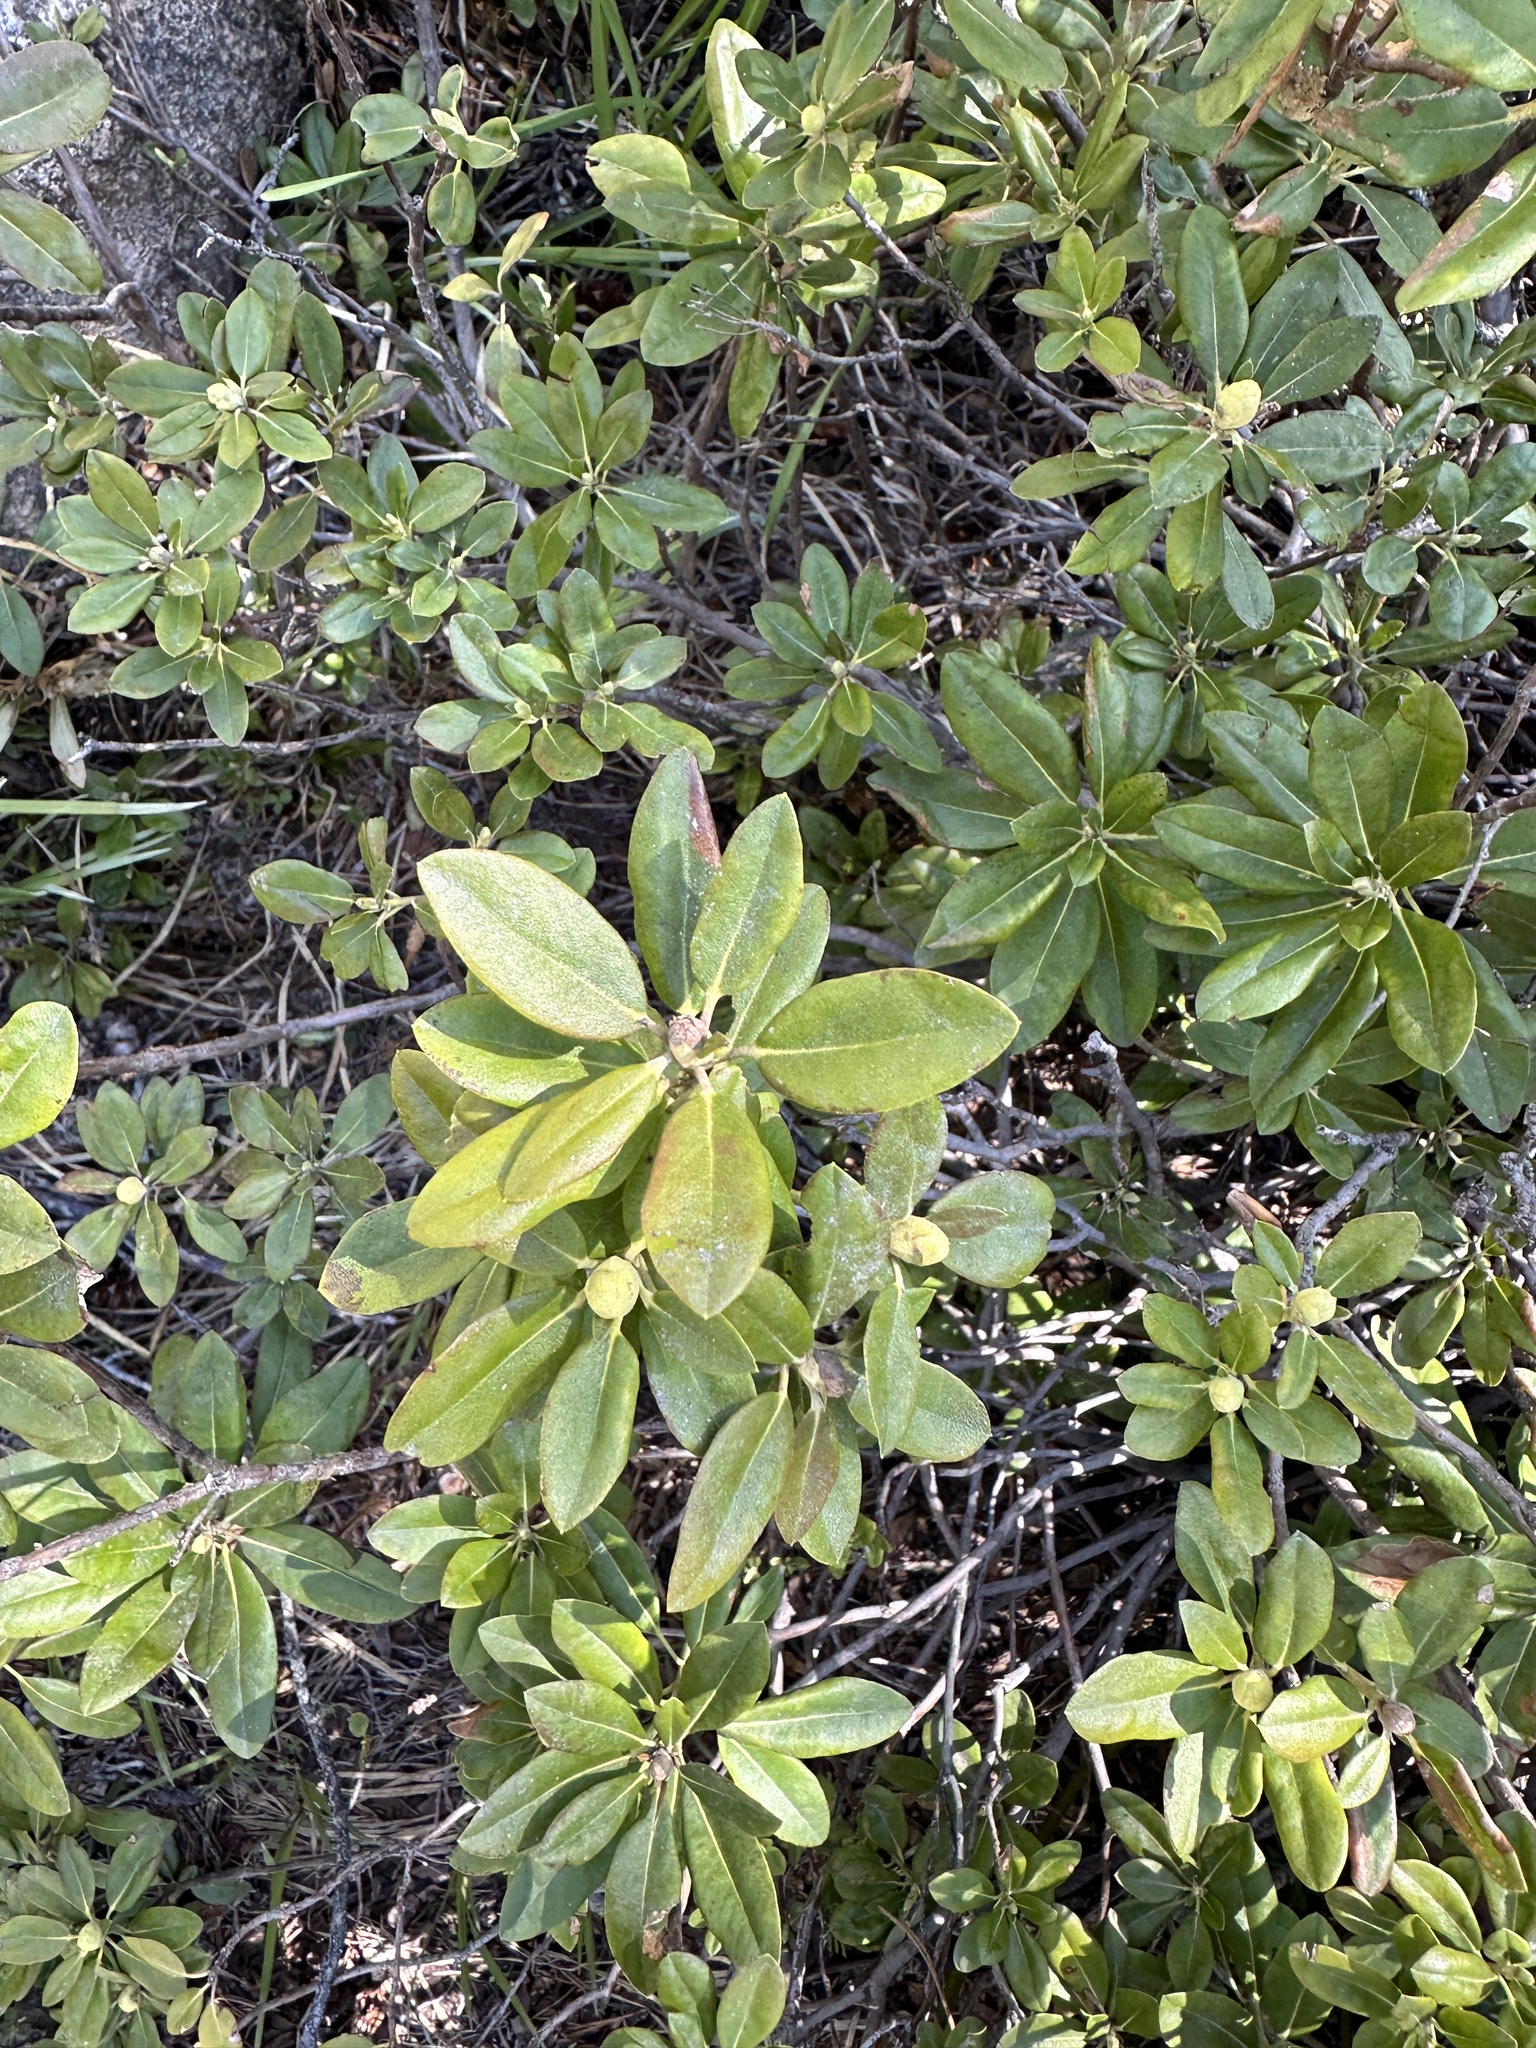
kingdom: Plantae
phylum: Tracheophyta
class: Magnoliopsida
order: Ericales
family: Ericaceae
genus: Rhododendron
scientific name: Rhododendron columbianum
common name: Western labrador tea
